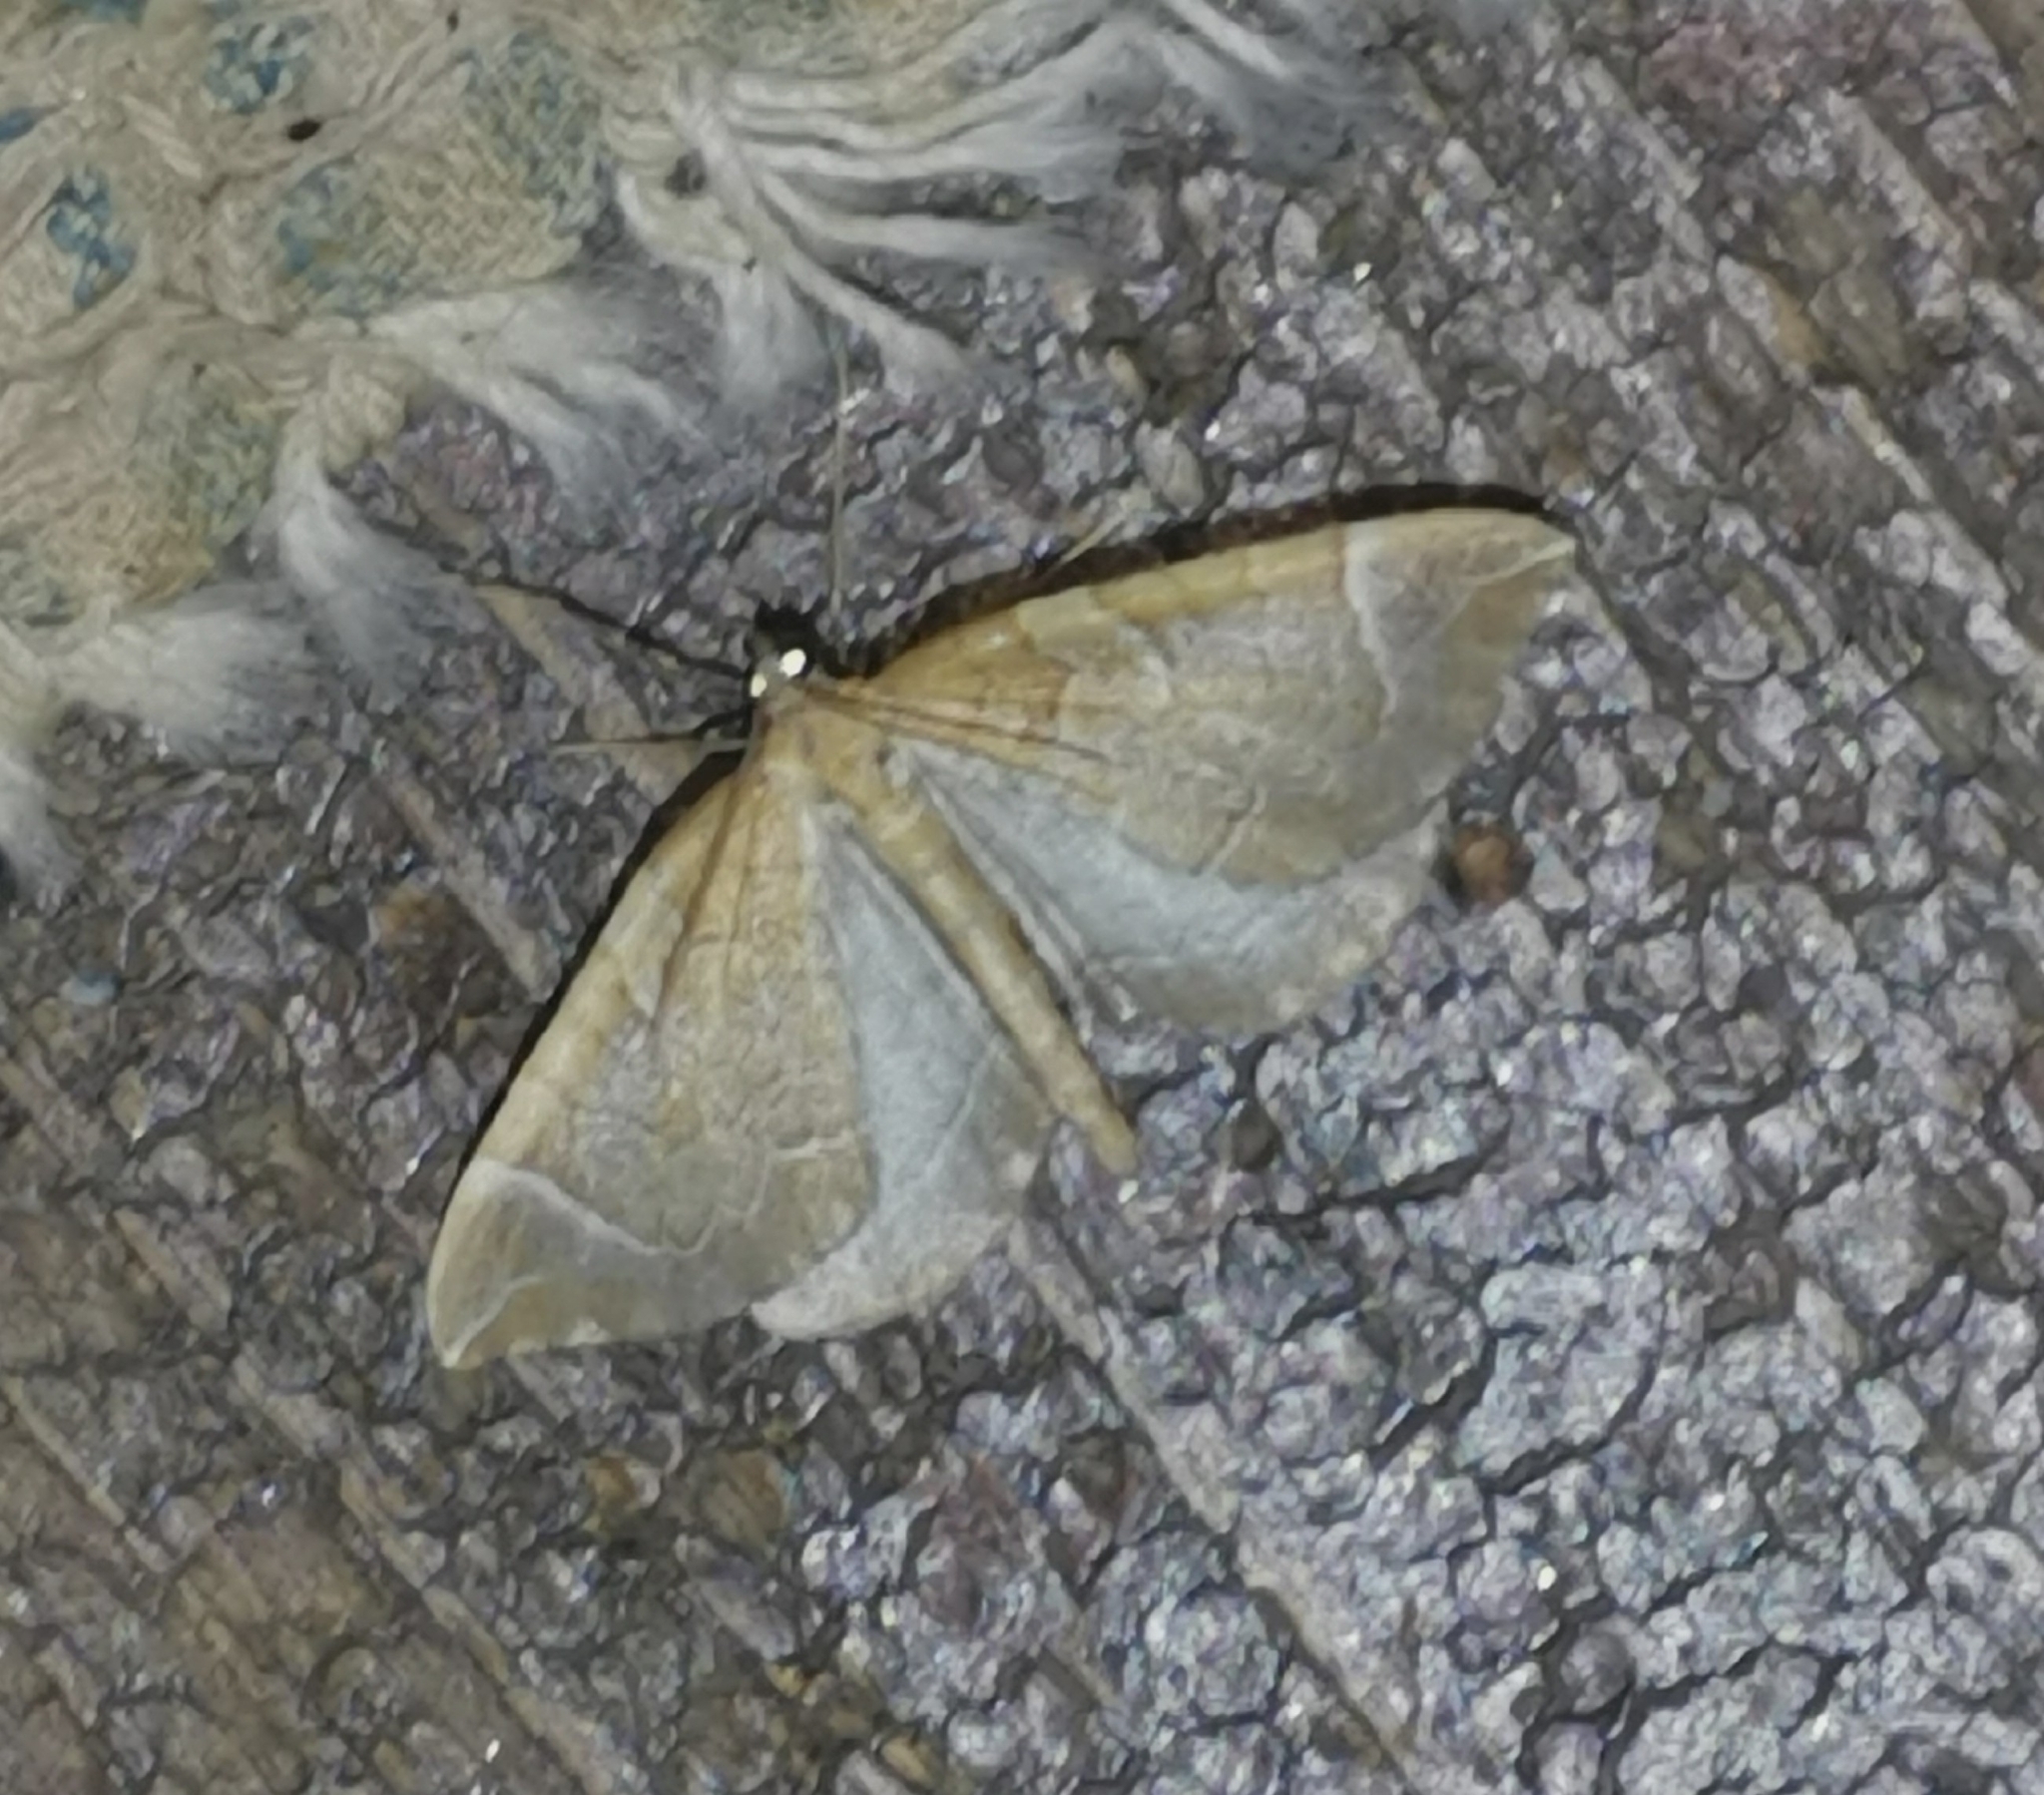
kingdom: Animalia
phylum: Arthropoda
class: Insecta
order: Lepidoptera
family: Geometridae
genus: Eulithis
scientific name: Eulithis testata
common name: Chevron
